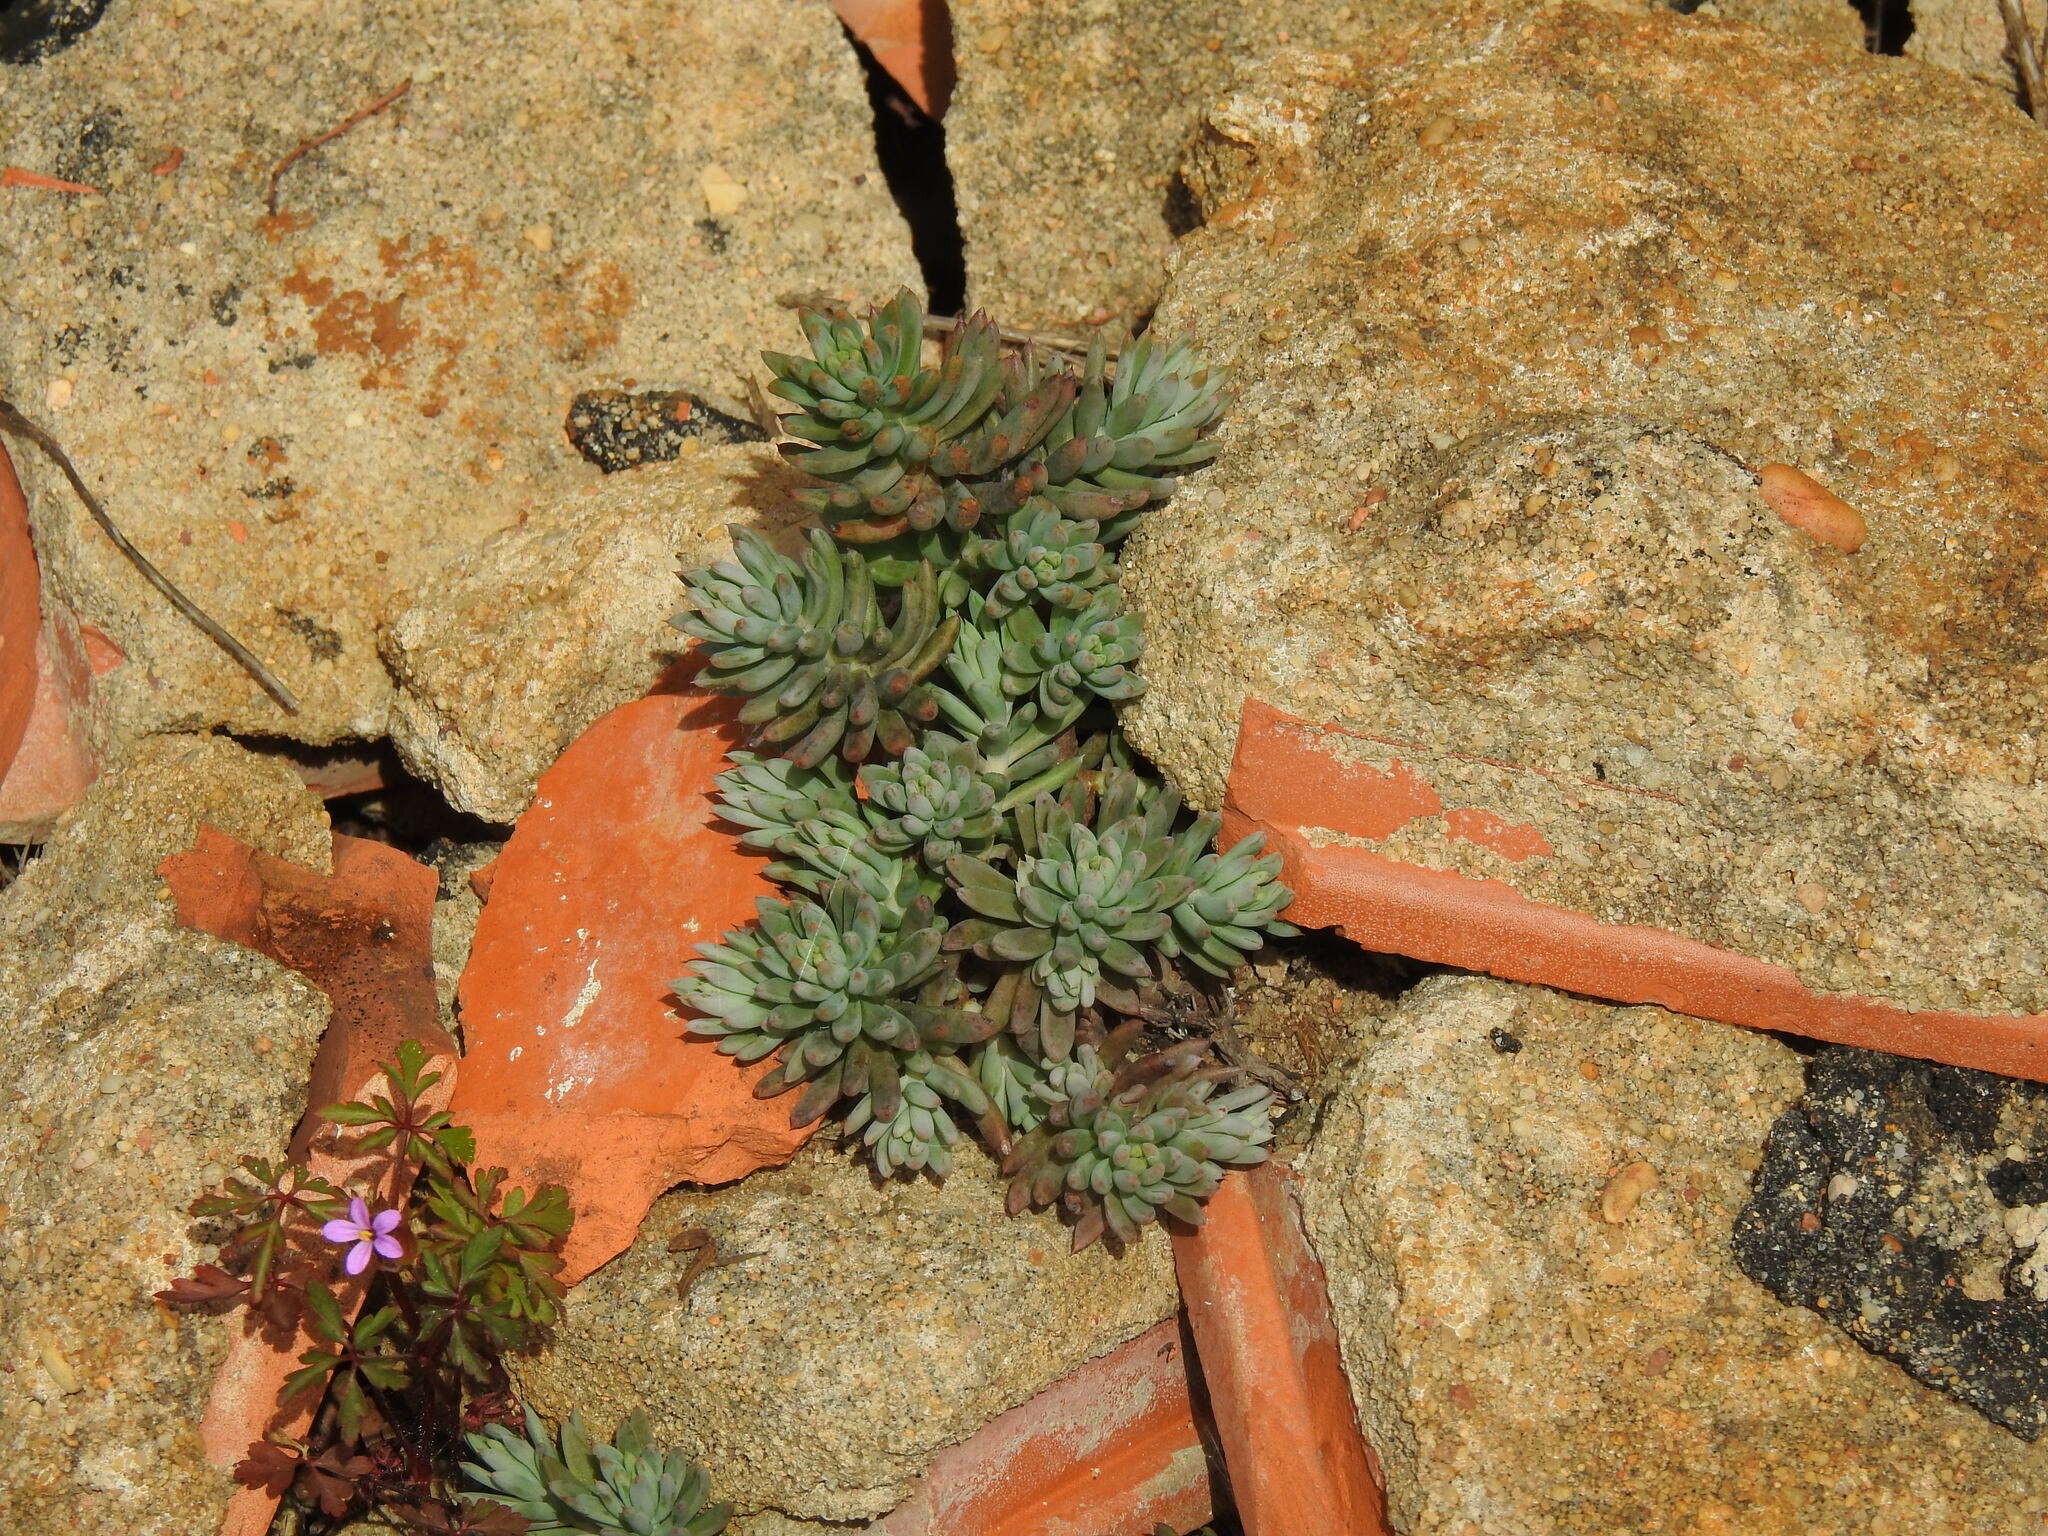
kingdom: Plantae
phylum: Tracheophyta
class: Magnoliopsida
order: Saxifragales
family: Crassulaceae
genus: Petrosedum
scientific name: Petrosedum sediforme
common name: Pale stonecrop
